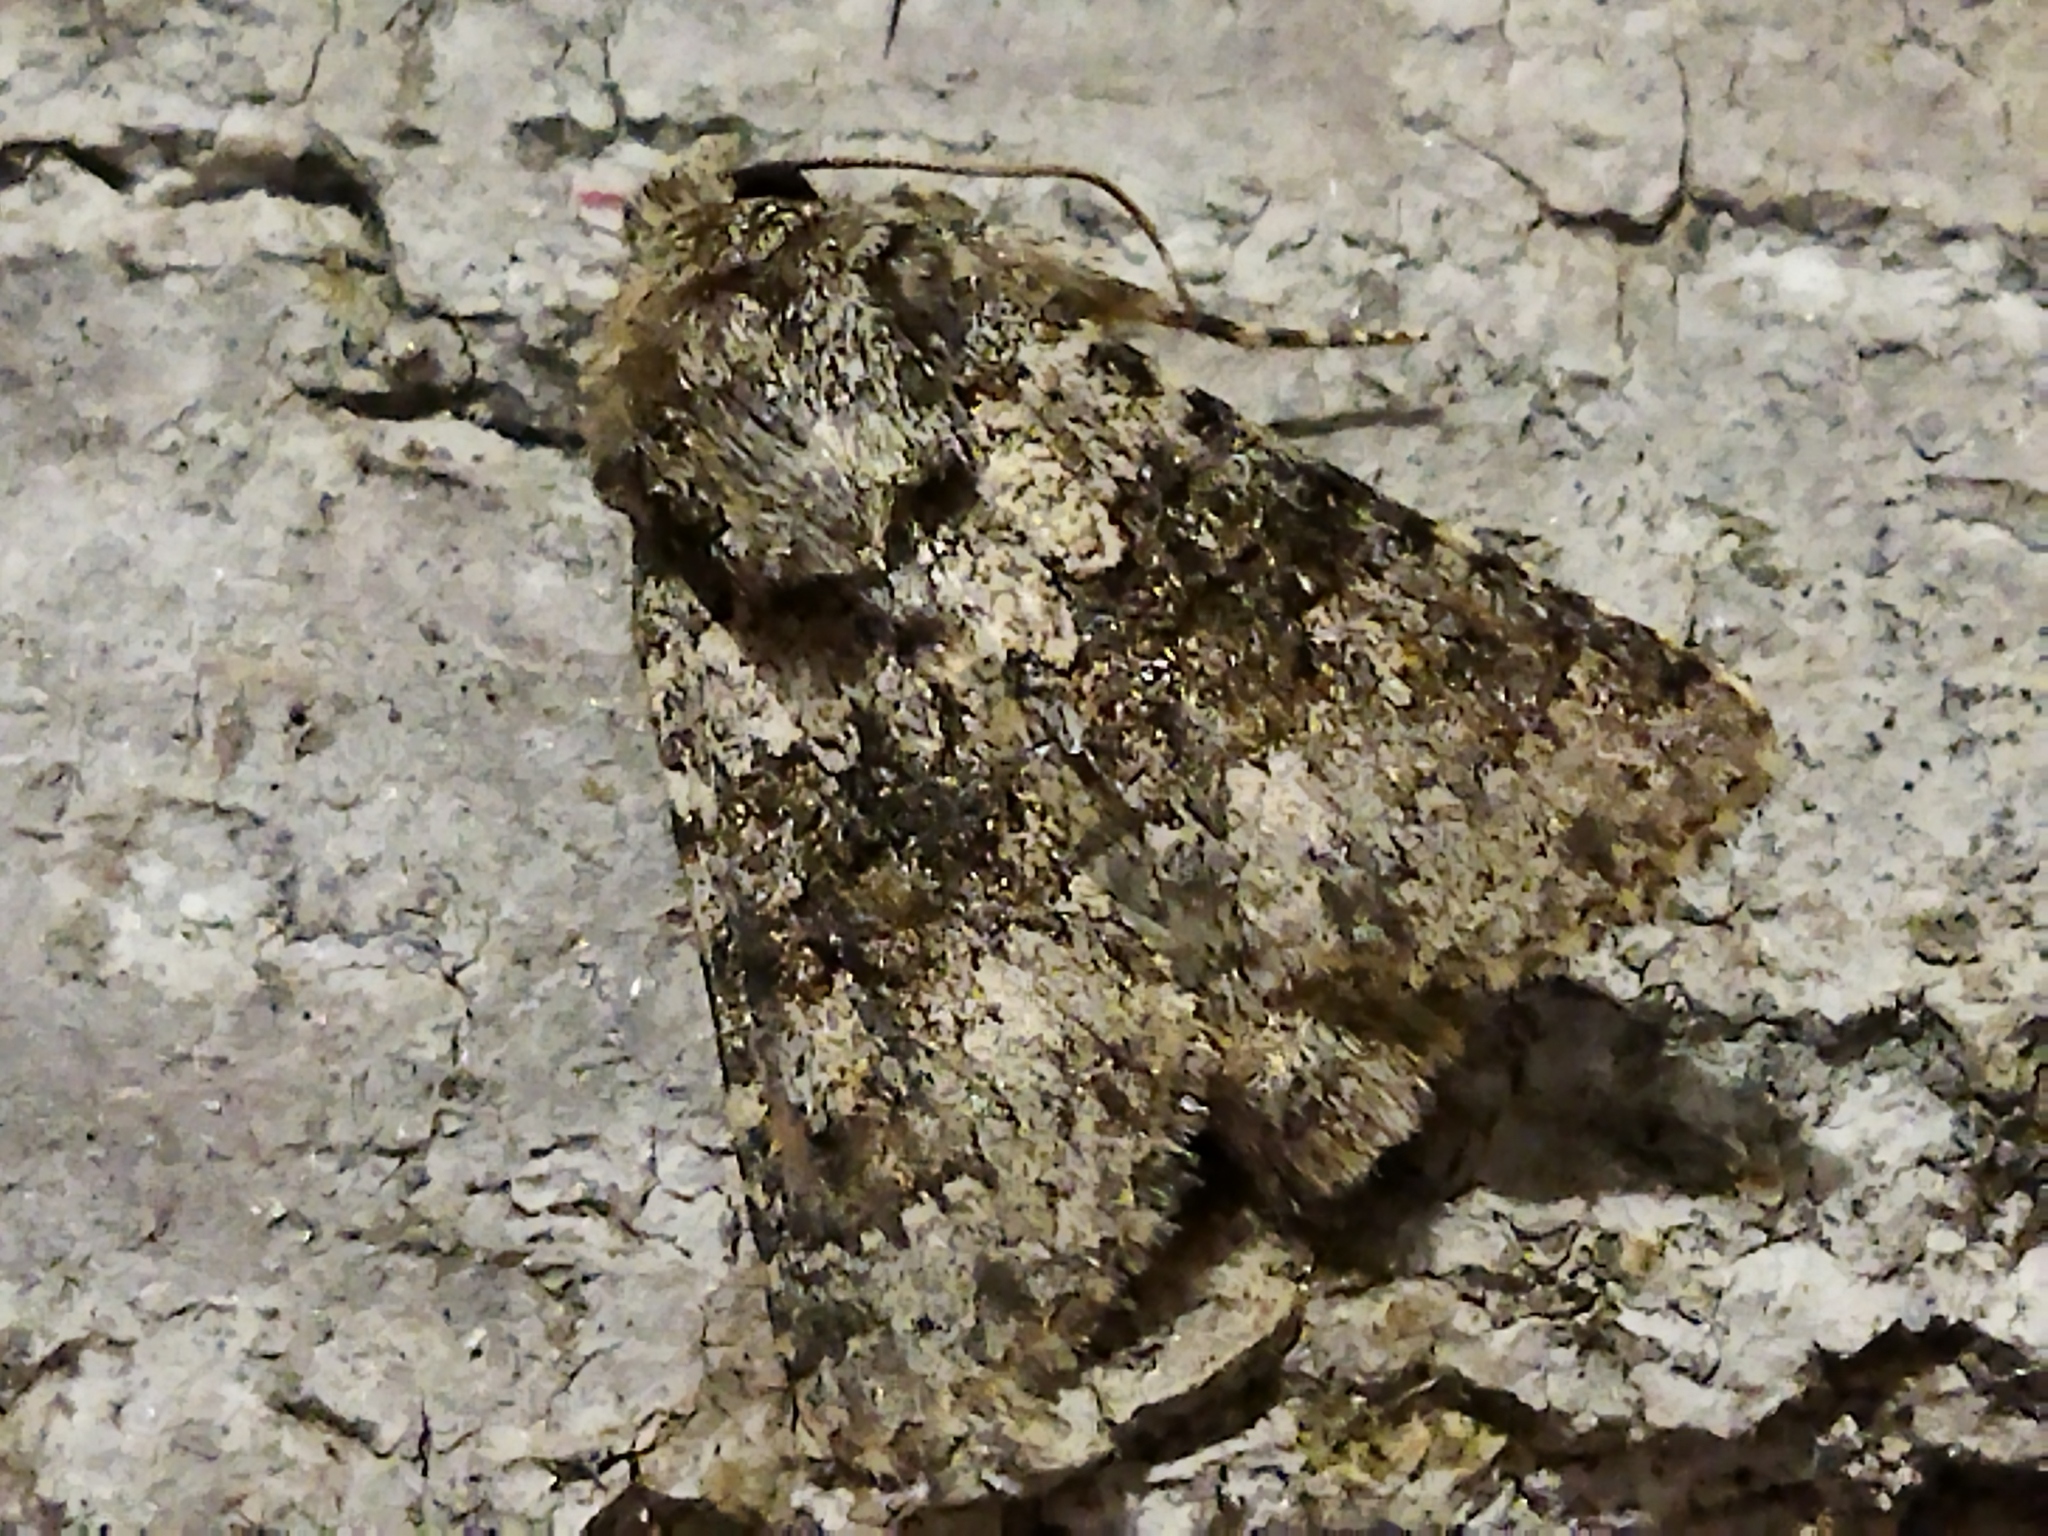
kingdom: Animalia
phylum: Arthropoda
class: Insecta
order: Lepidoptera
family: Noctuidae
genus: Hecatera
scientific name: Hecatera dysodea
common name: Small ranunculus
